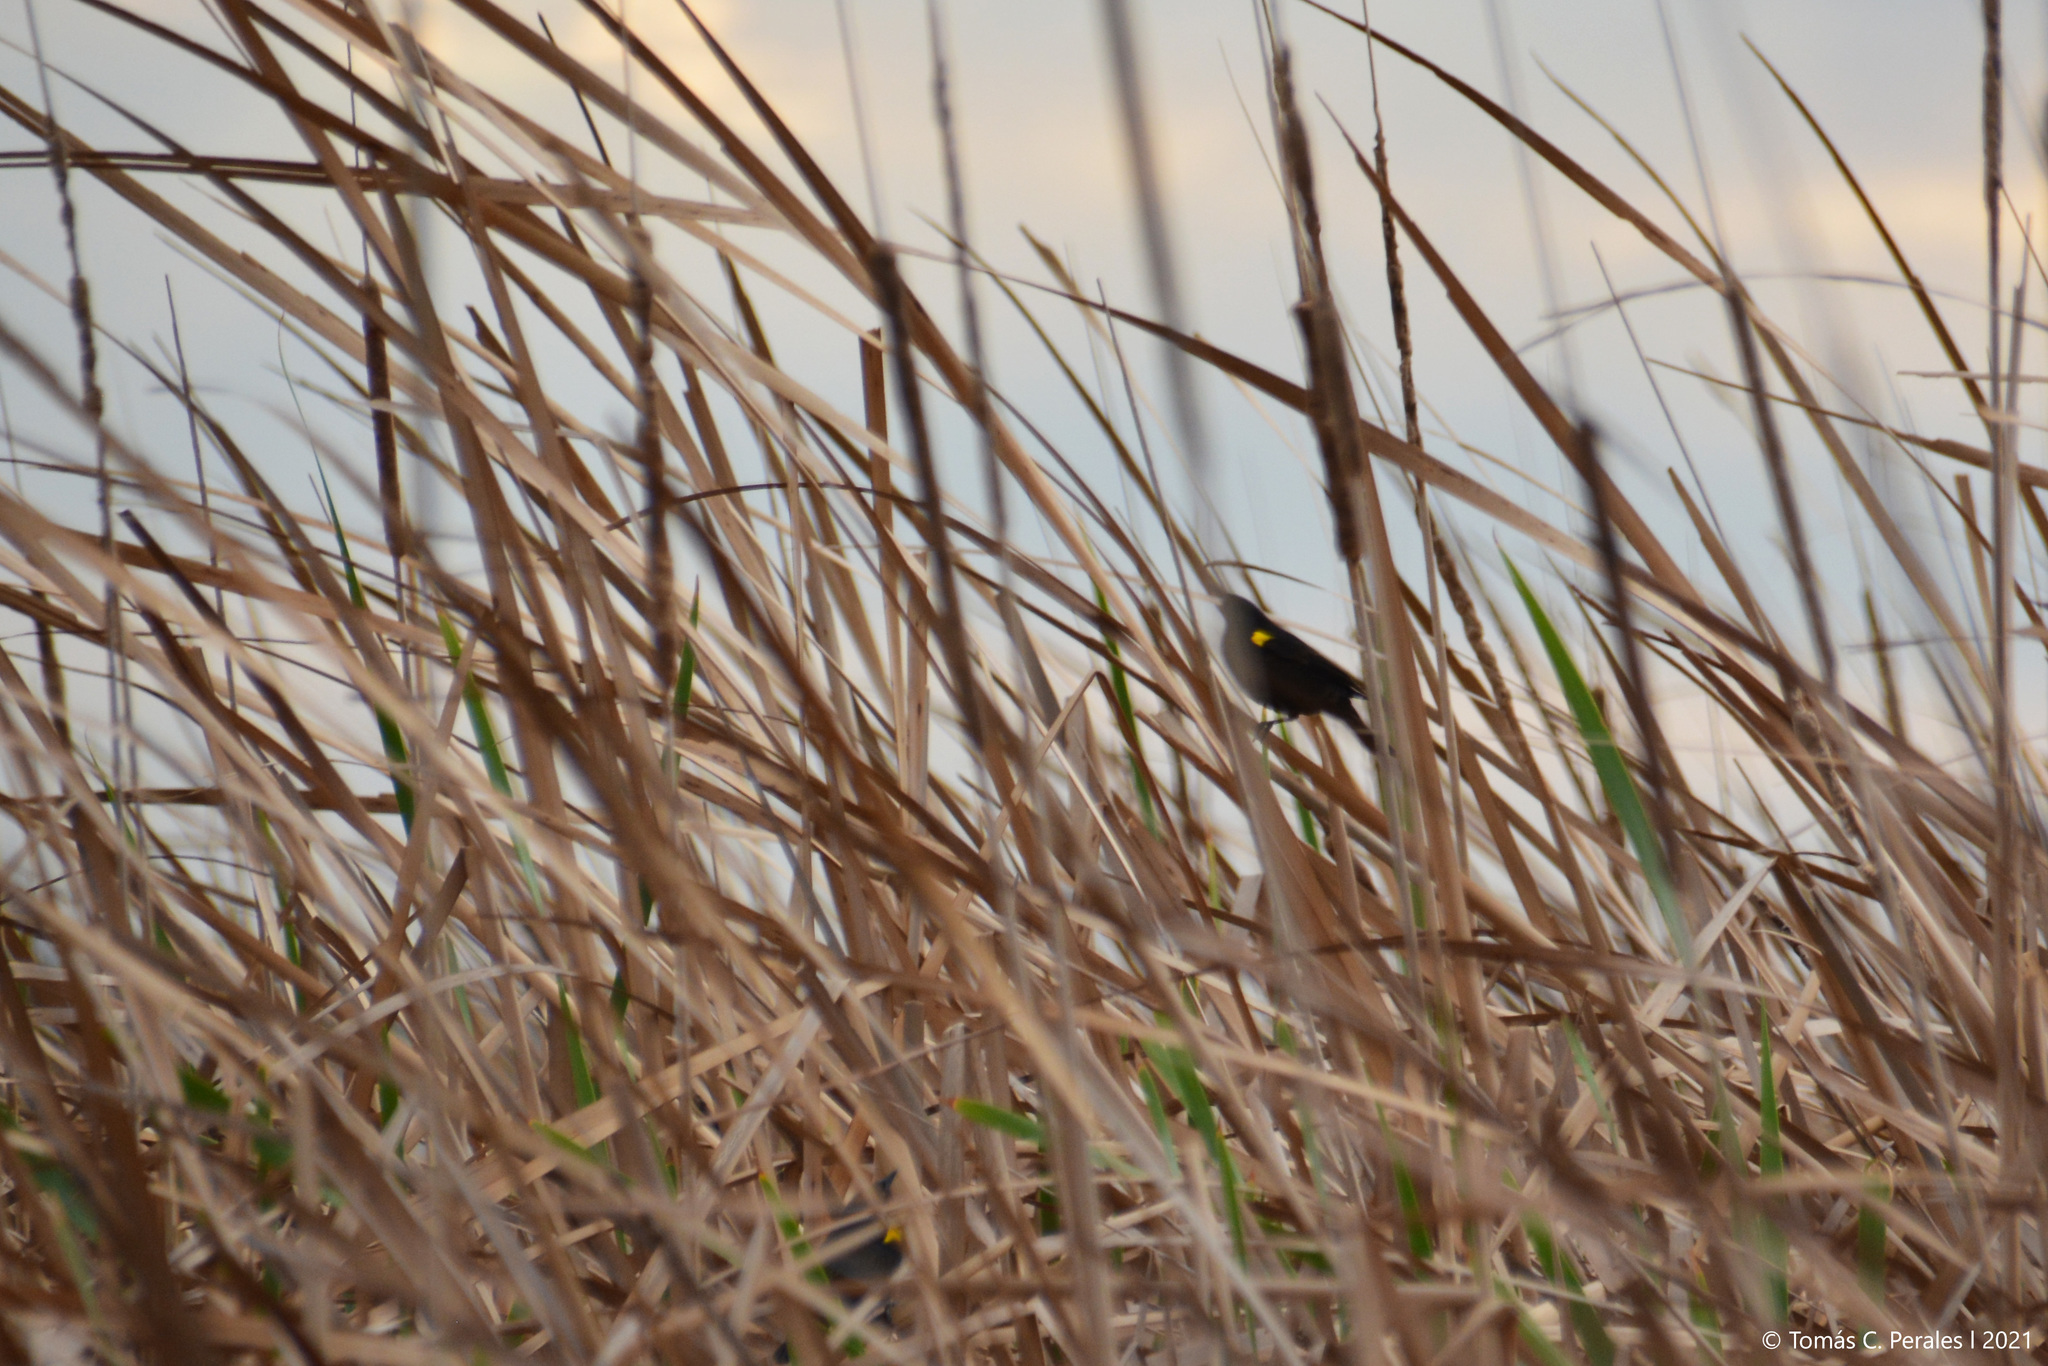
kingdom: Animalia
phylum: Chordata
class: Aves
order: Passeriformes
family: Icteridae
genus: Agelasticus
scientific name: Agelasticus thilius
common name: Yellow-winged blackbird
